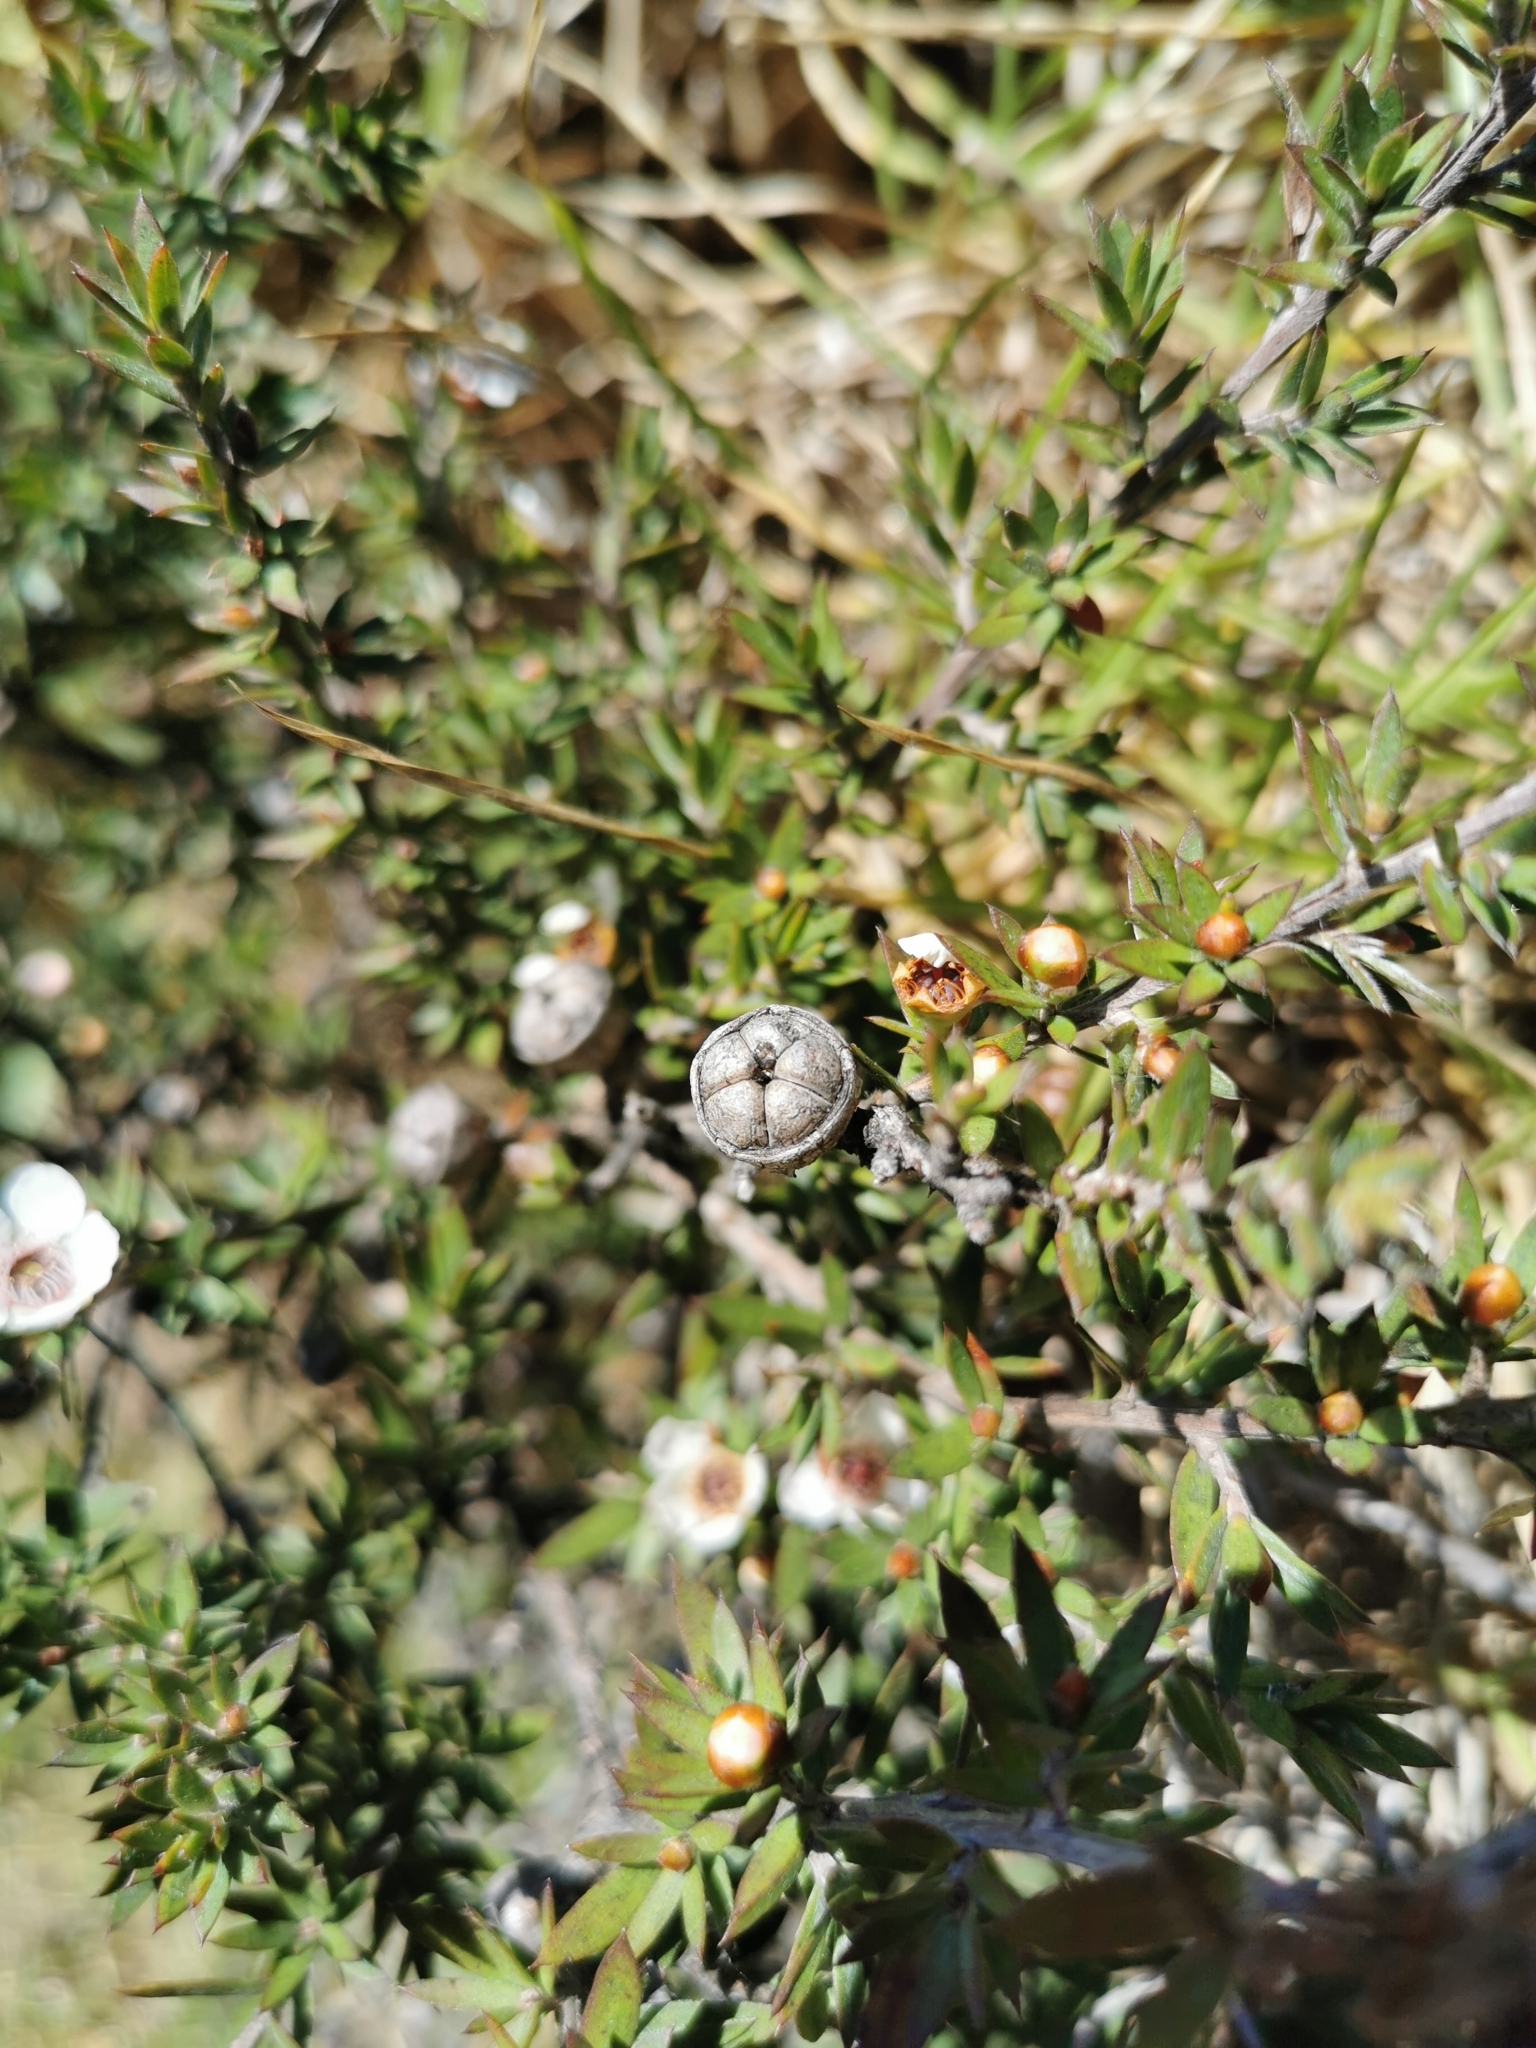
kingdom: Plantae
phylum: Tracheophyta
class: Magnoliopsida
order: Myrtales
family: Myrtaceae
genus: Leptospermum
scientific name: Leptospermum scoparium
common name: Broom tea-tree
